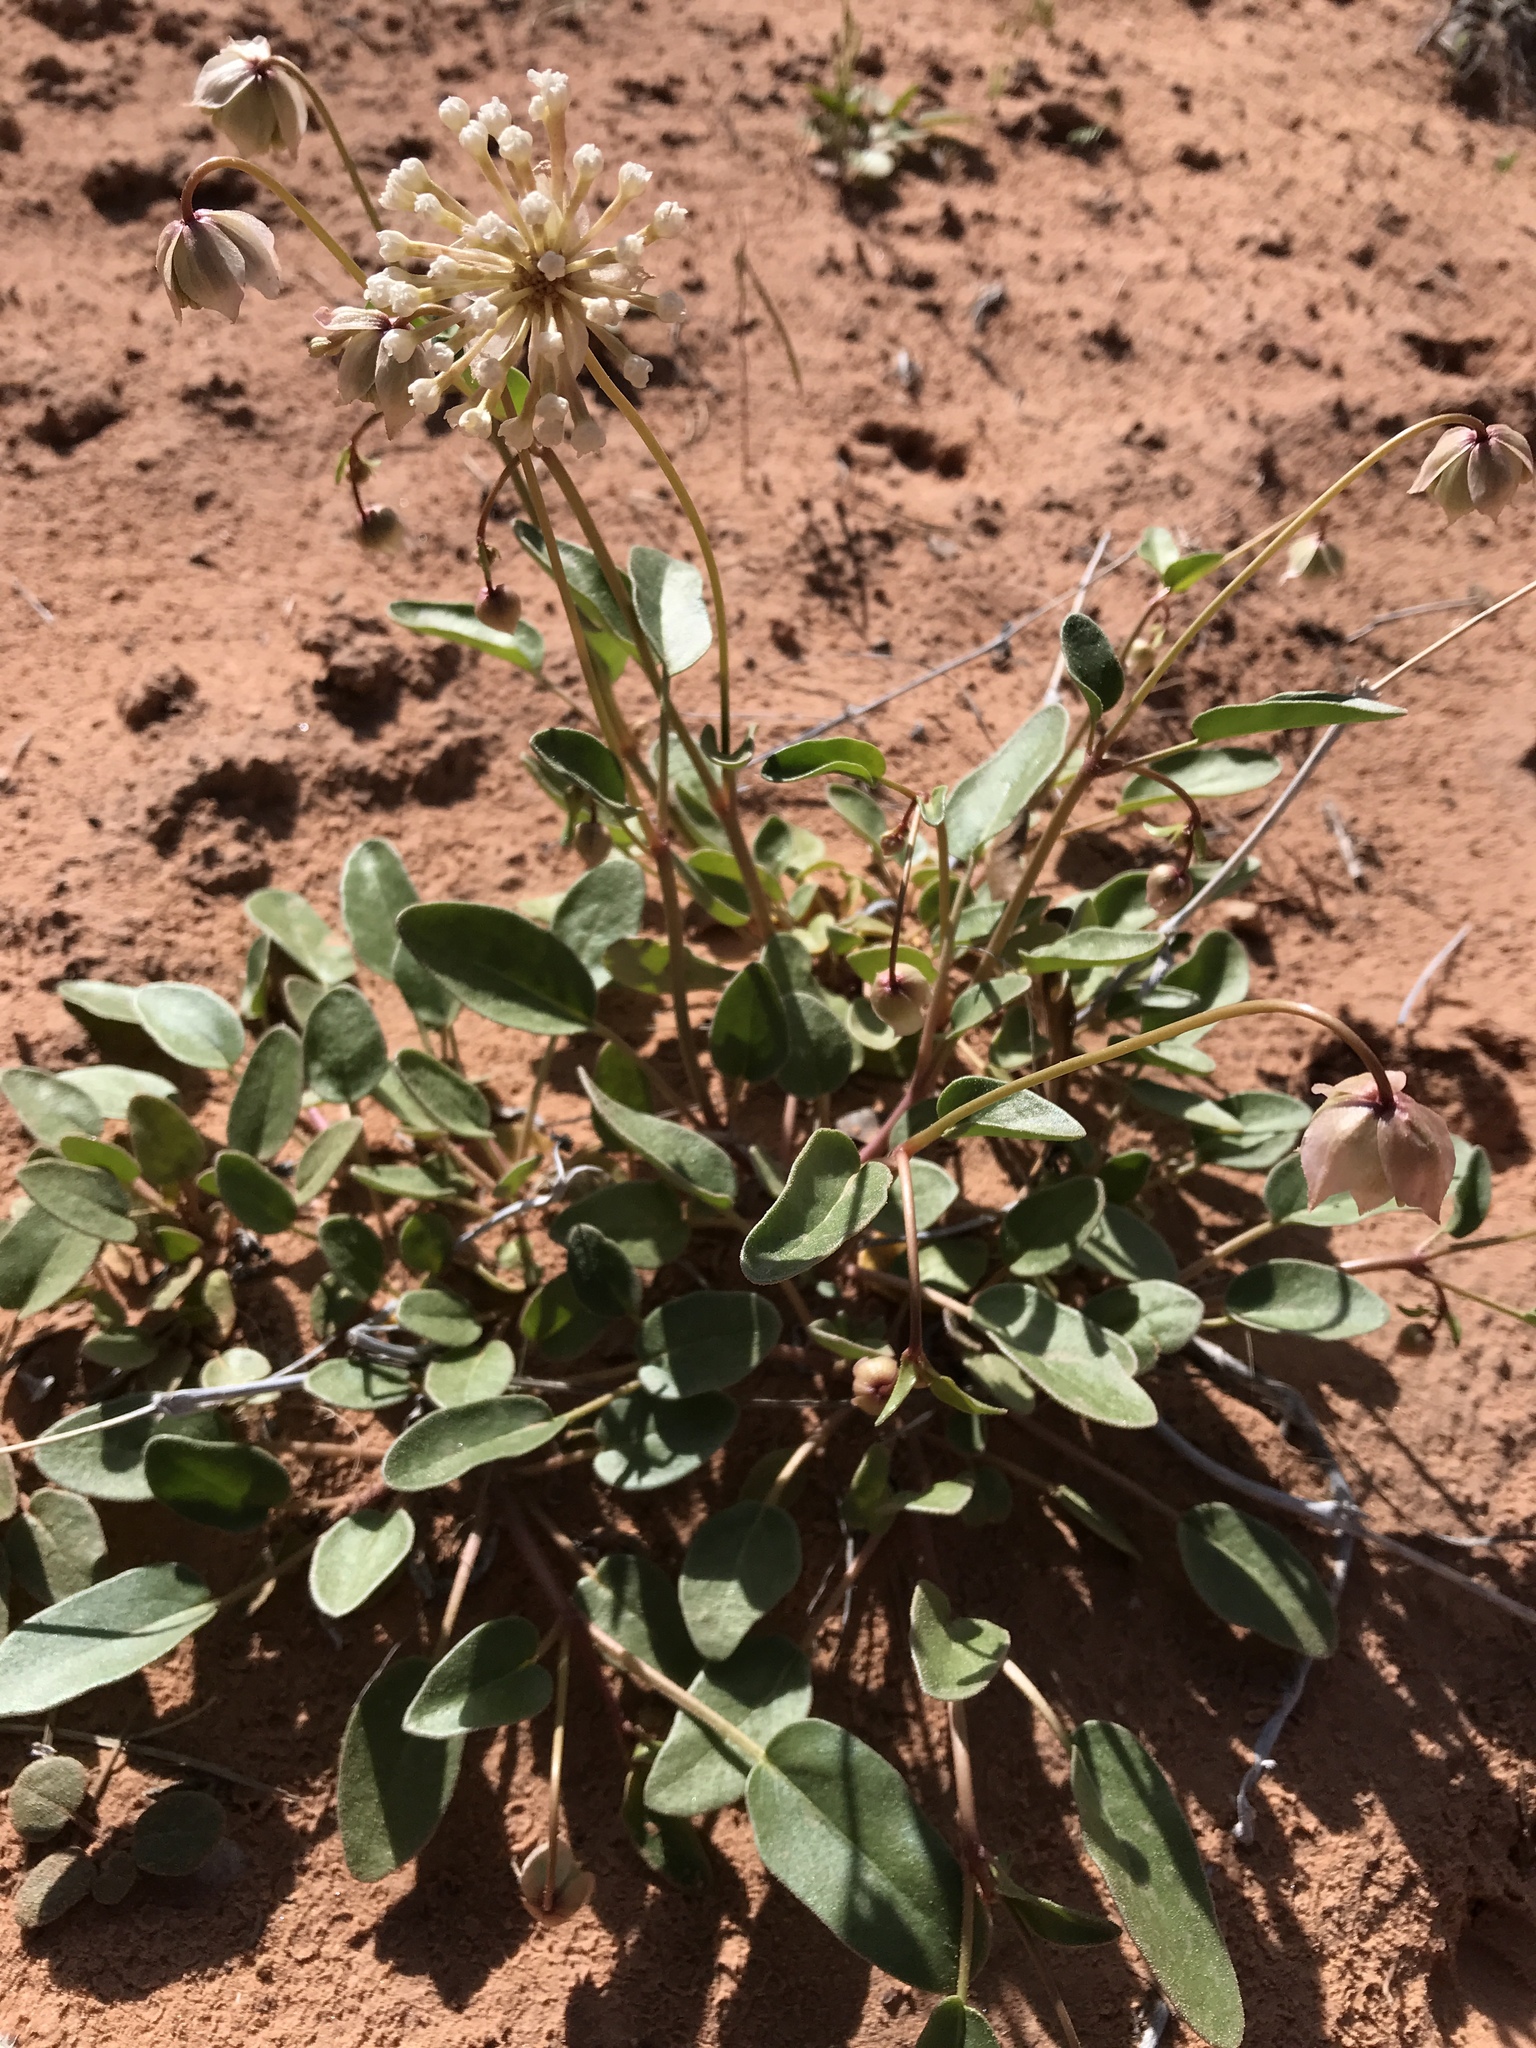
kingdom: Plantae
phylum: Tracheophyta
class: Magnoliopsida
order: Caryophyllales
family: Nyctaginaceae
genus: Abronia
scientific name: Abronia elliptica
